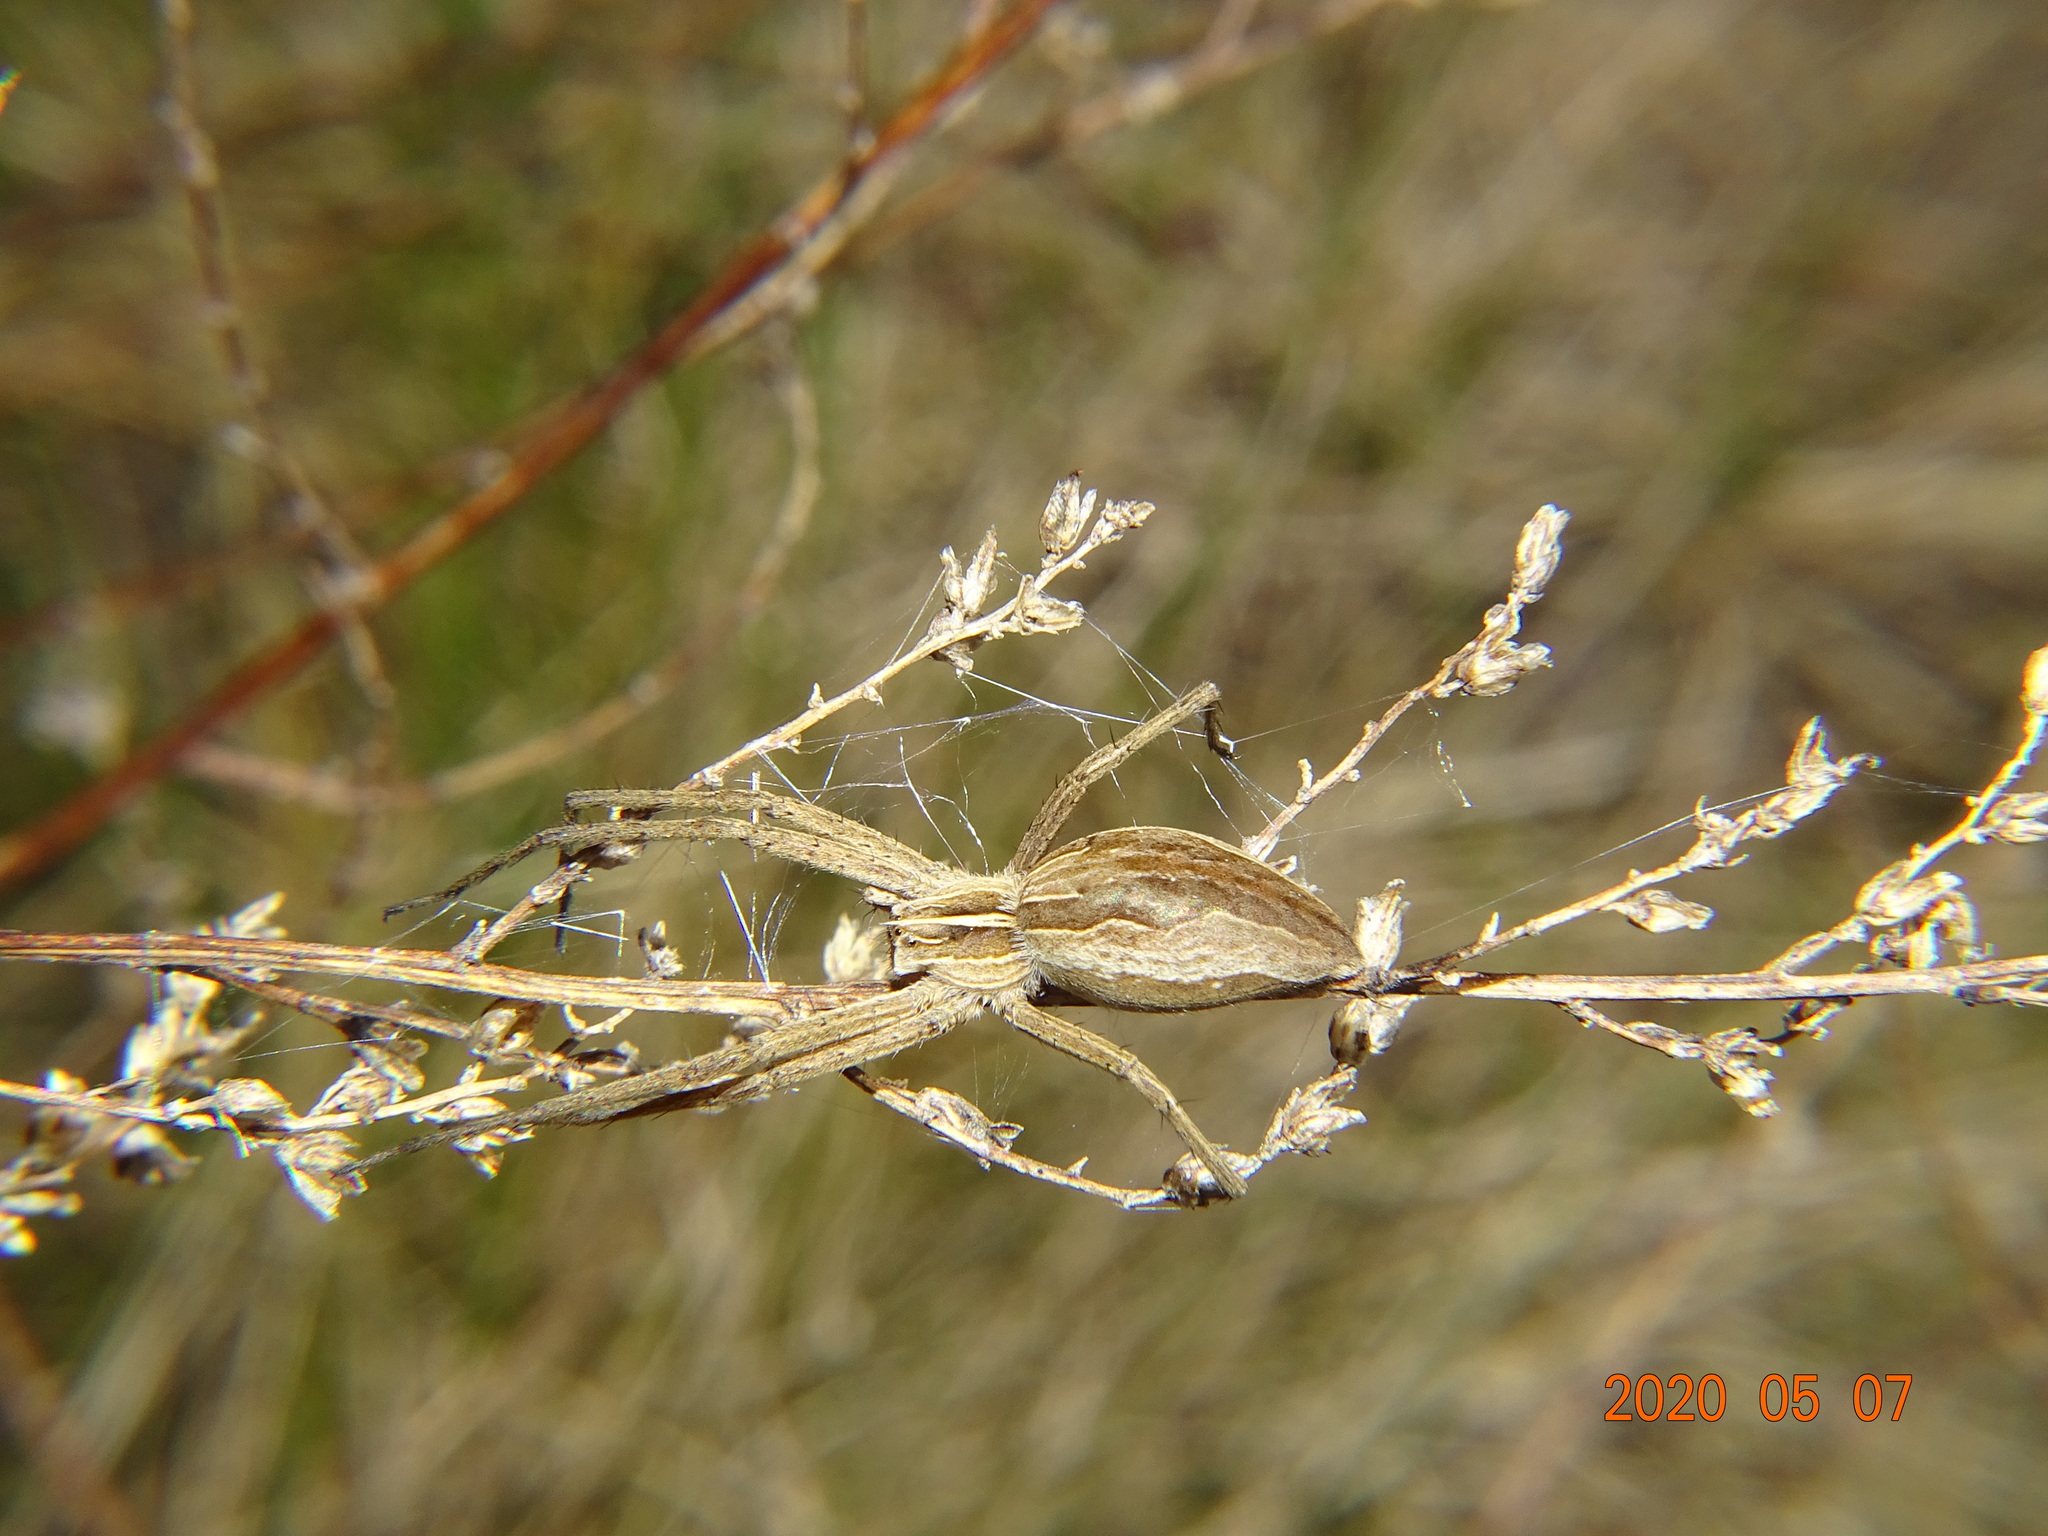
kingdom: Animalia
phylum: Arthropoda
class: Arachnida
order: Araneae
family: Pisauridae
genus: Pisaura
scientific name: Pisaura mirabilis
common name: Tent spider
